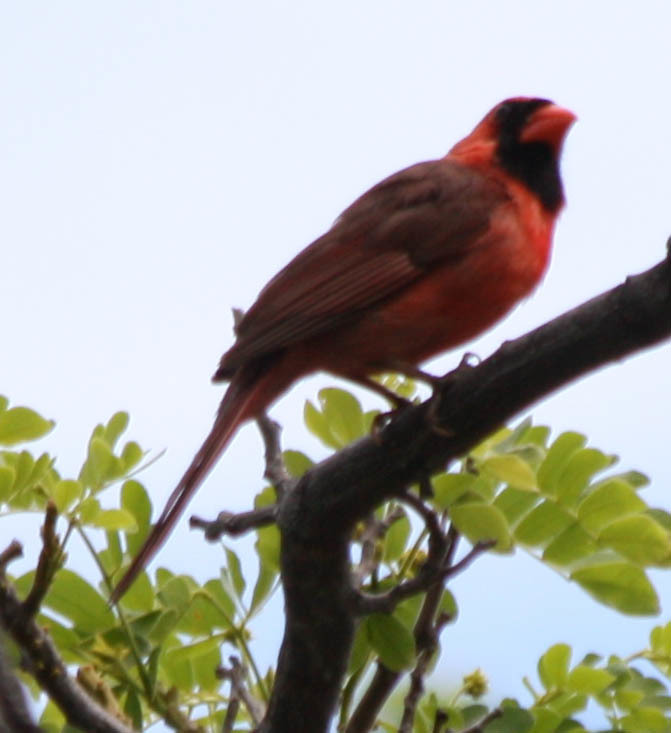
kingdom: Animalia
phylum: Chordata
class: Aves
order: Passeriformes
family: Cardinalidae
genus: Cardinalis
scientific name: Cardinalis cardinalis
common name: Northern cardinal
